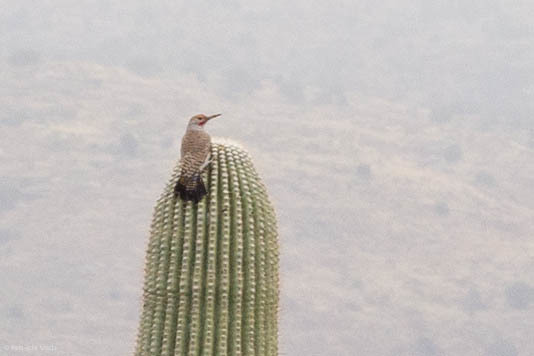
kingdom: Animalia
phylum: Chordata
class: Aves
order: Piciformes
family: Picidae
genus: Colaptes
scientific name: Colaptes chrysoides
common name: Gilded flicker
